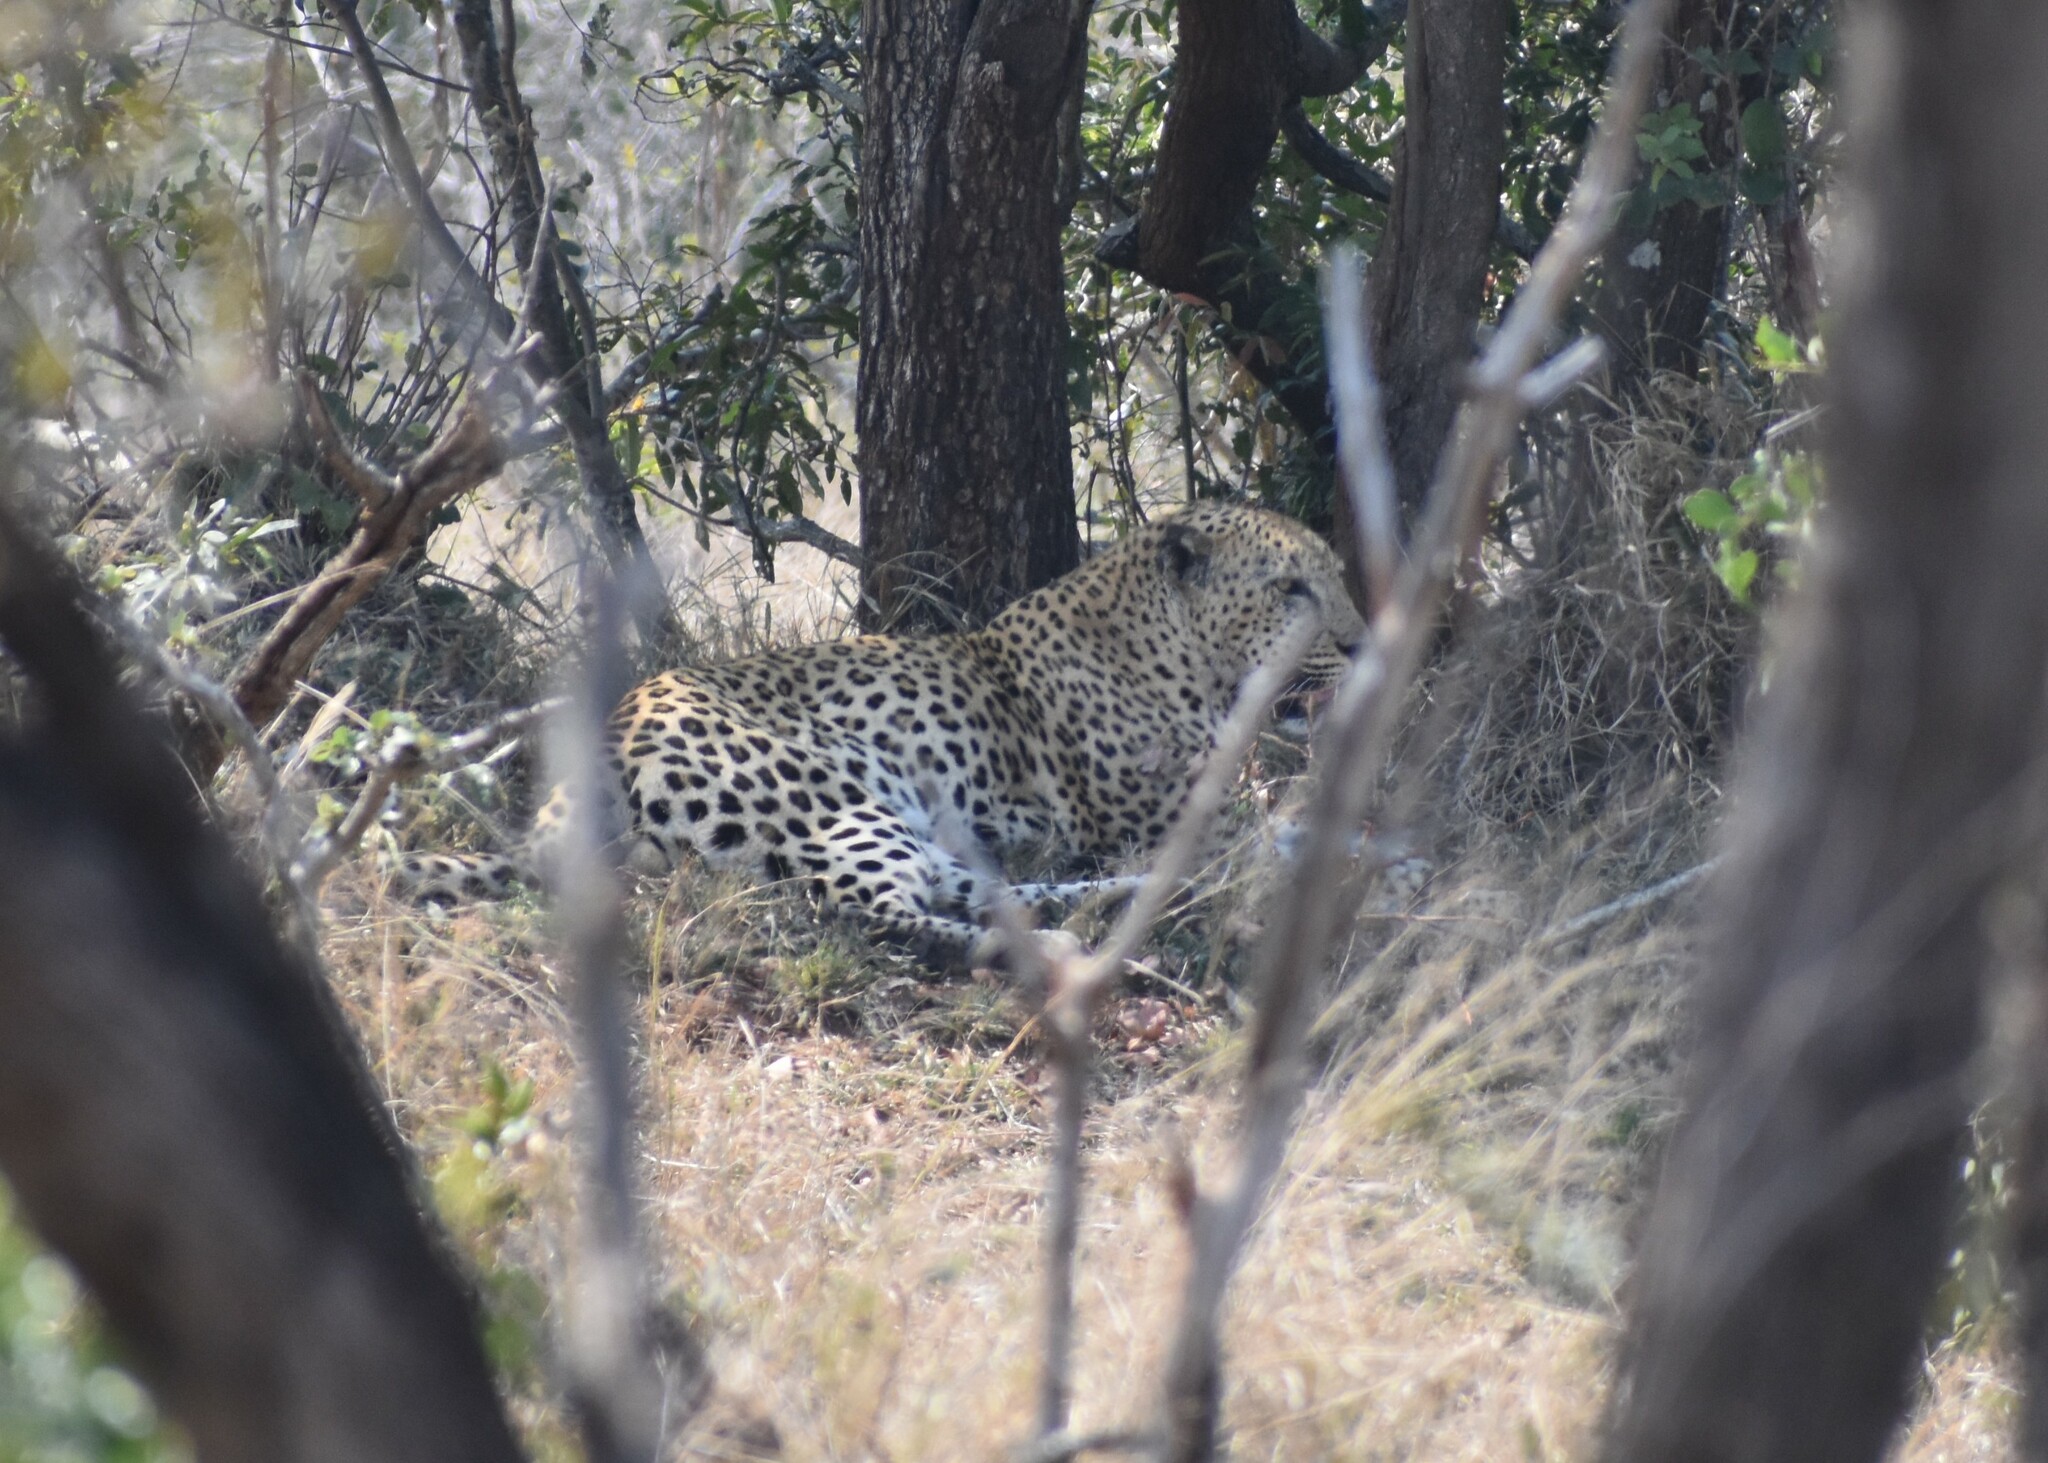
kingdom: Animalia
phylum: Chordata
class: Mammalia
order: Carnivora
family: Felidae
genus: Panthera
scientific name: Panthera pardus
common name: Leopard
